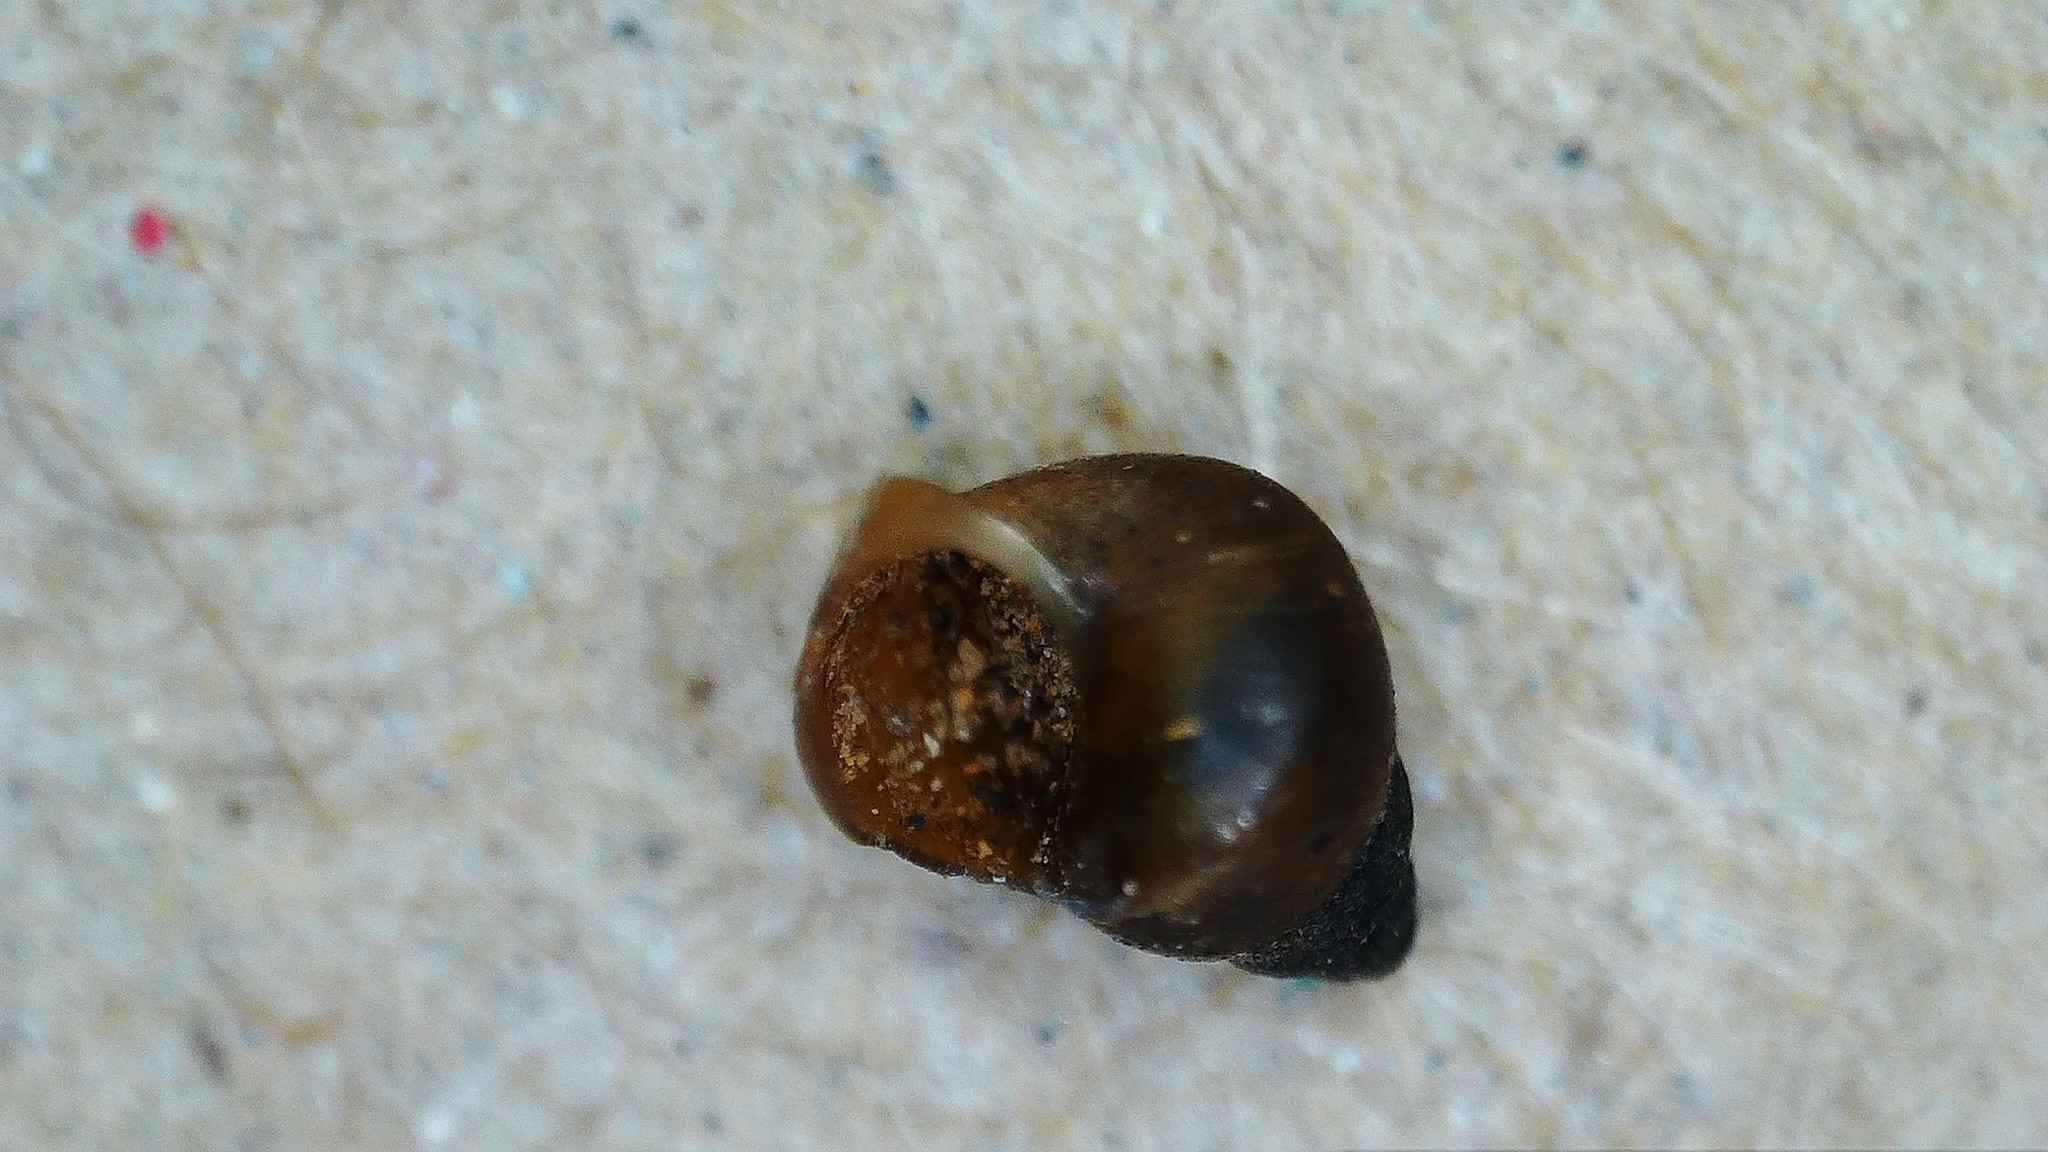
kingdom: Animalia
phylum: Mollusca
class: Gastropoda
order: Littorinimorpha
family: Tateidae
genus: Potamopyrgus
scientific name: Potamopyrgus antipodarum
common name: Jenkins' spire snail
